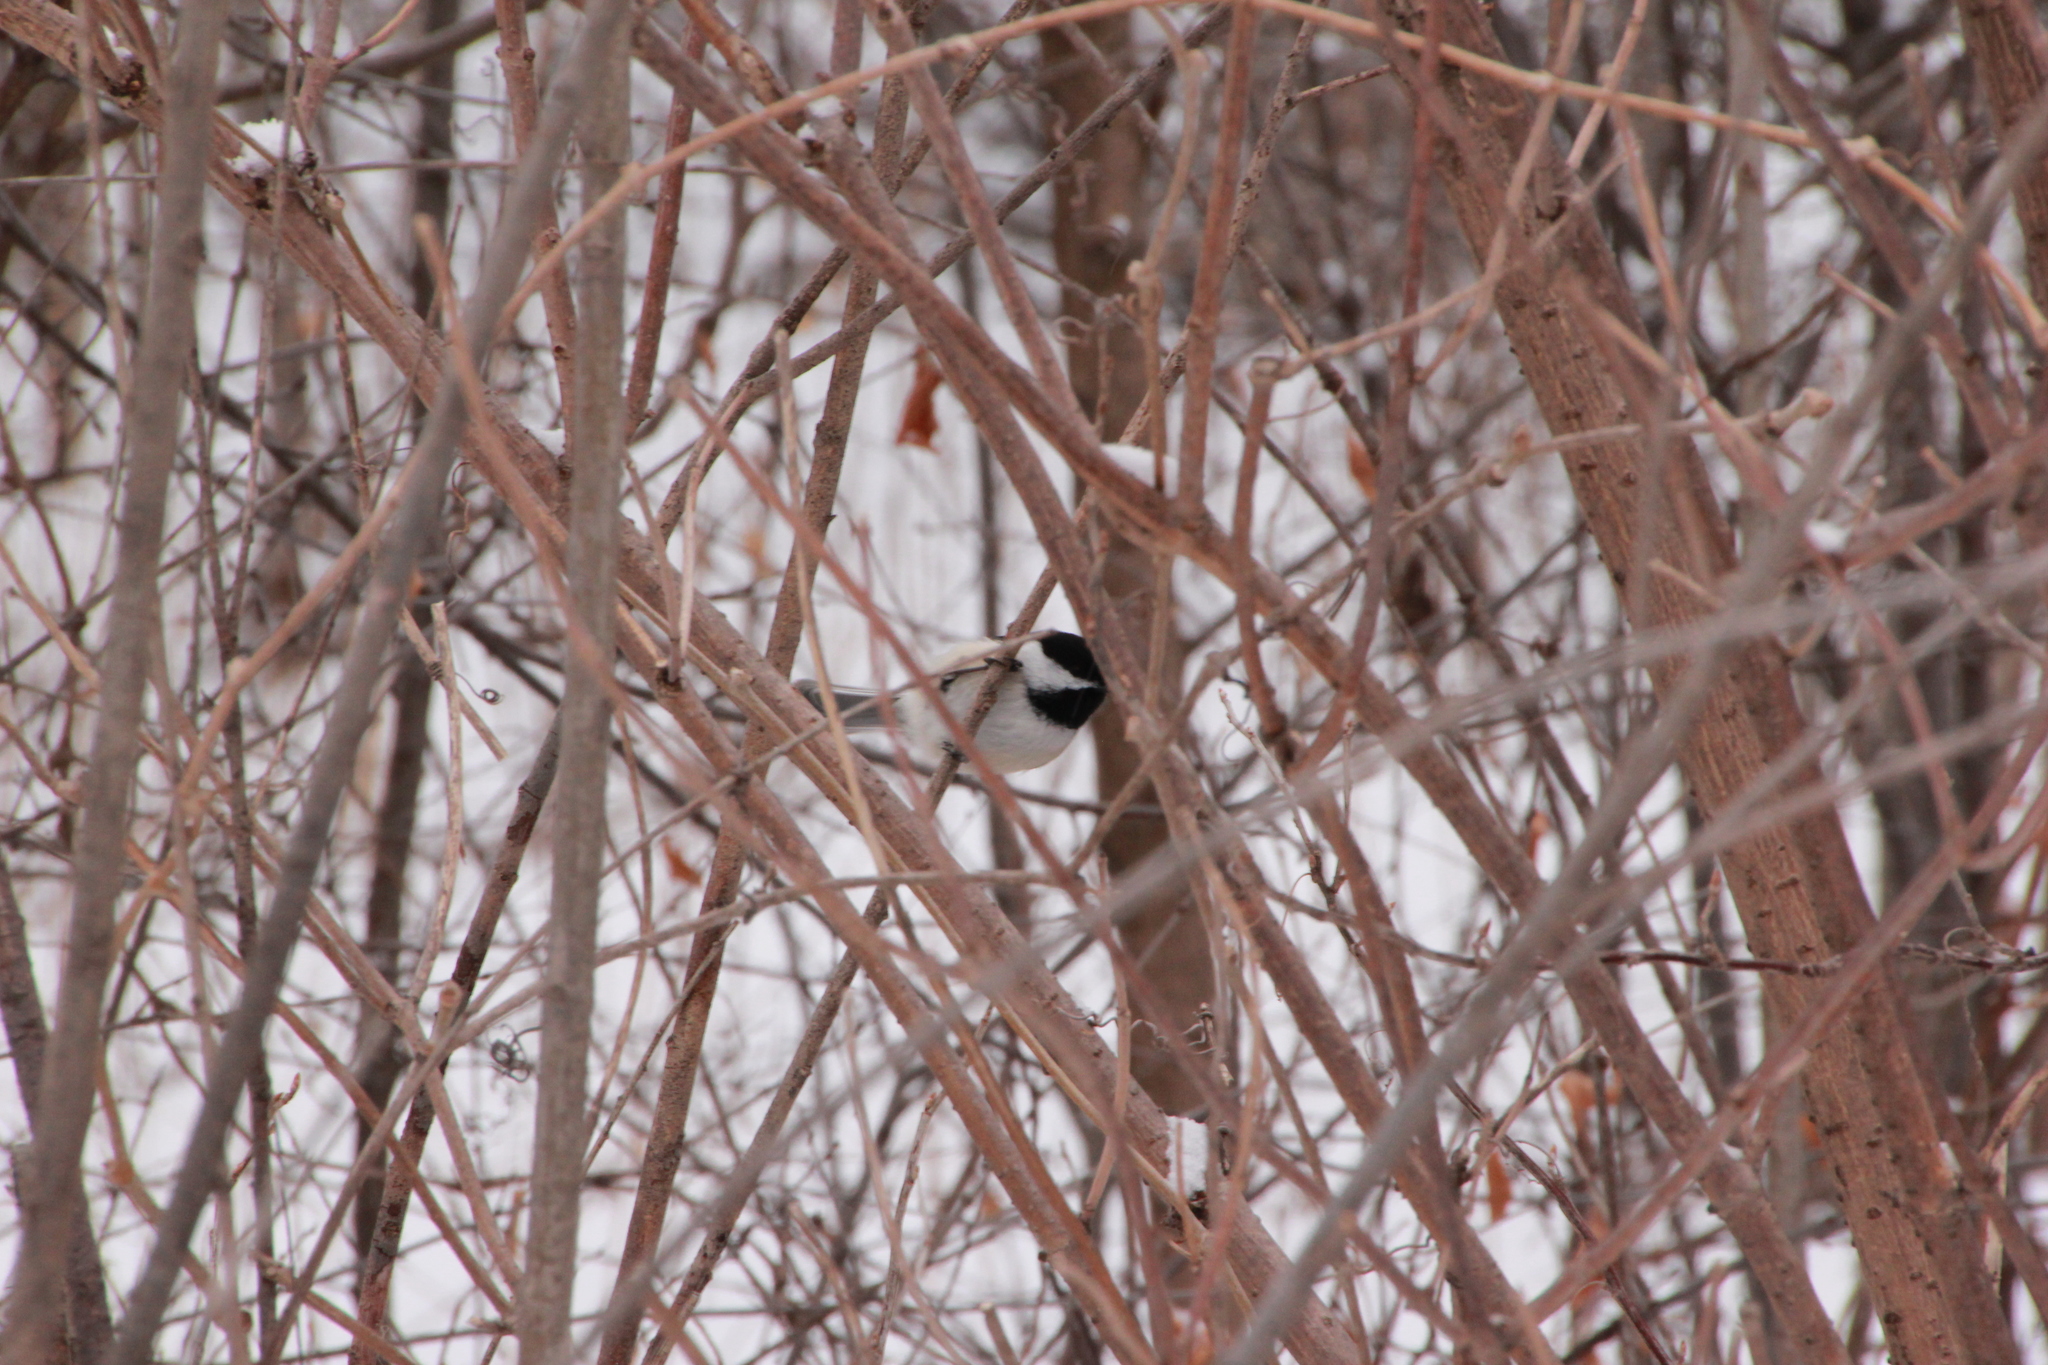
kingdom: Animalia
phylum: Chordata
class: Aves
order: Passeriformes
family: Paridae
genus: Poecile
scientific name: Poecile atricapillus
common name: Black-capped chickadee
